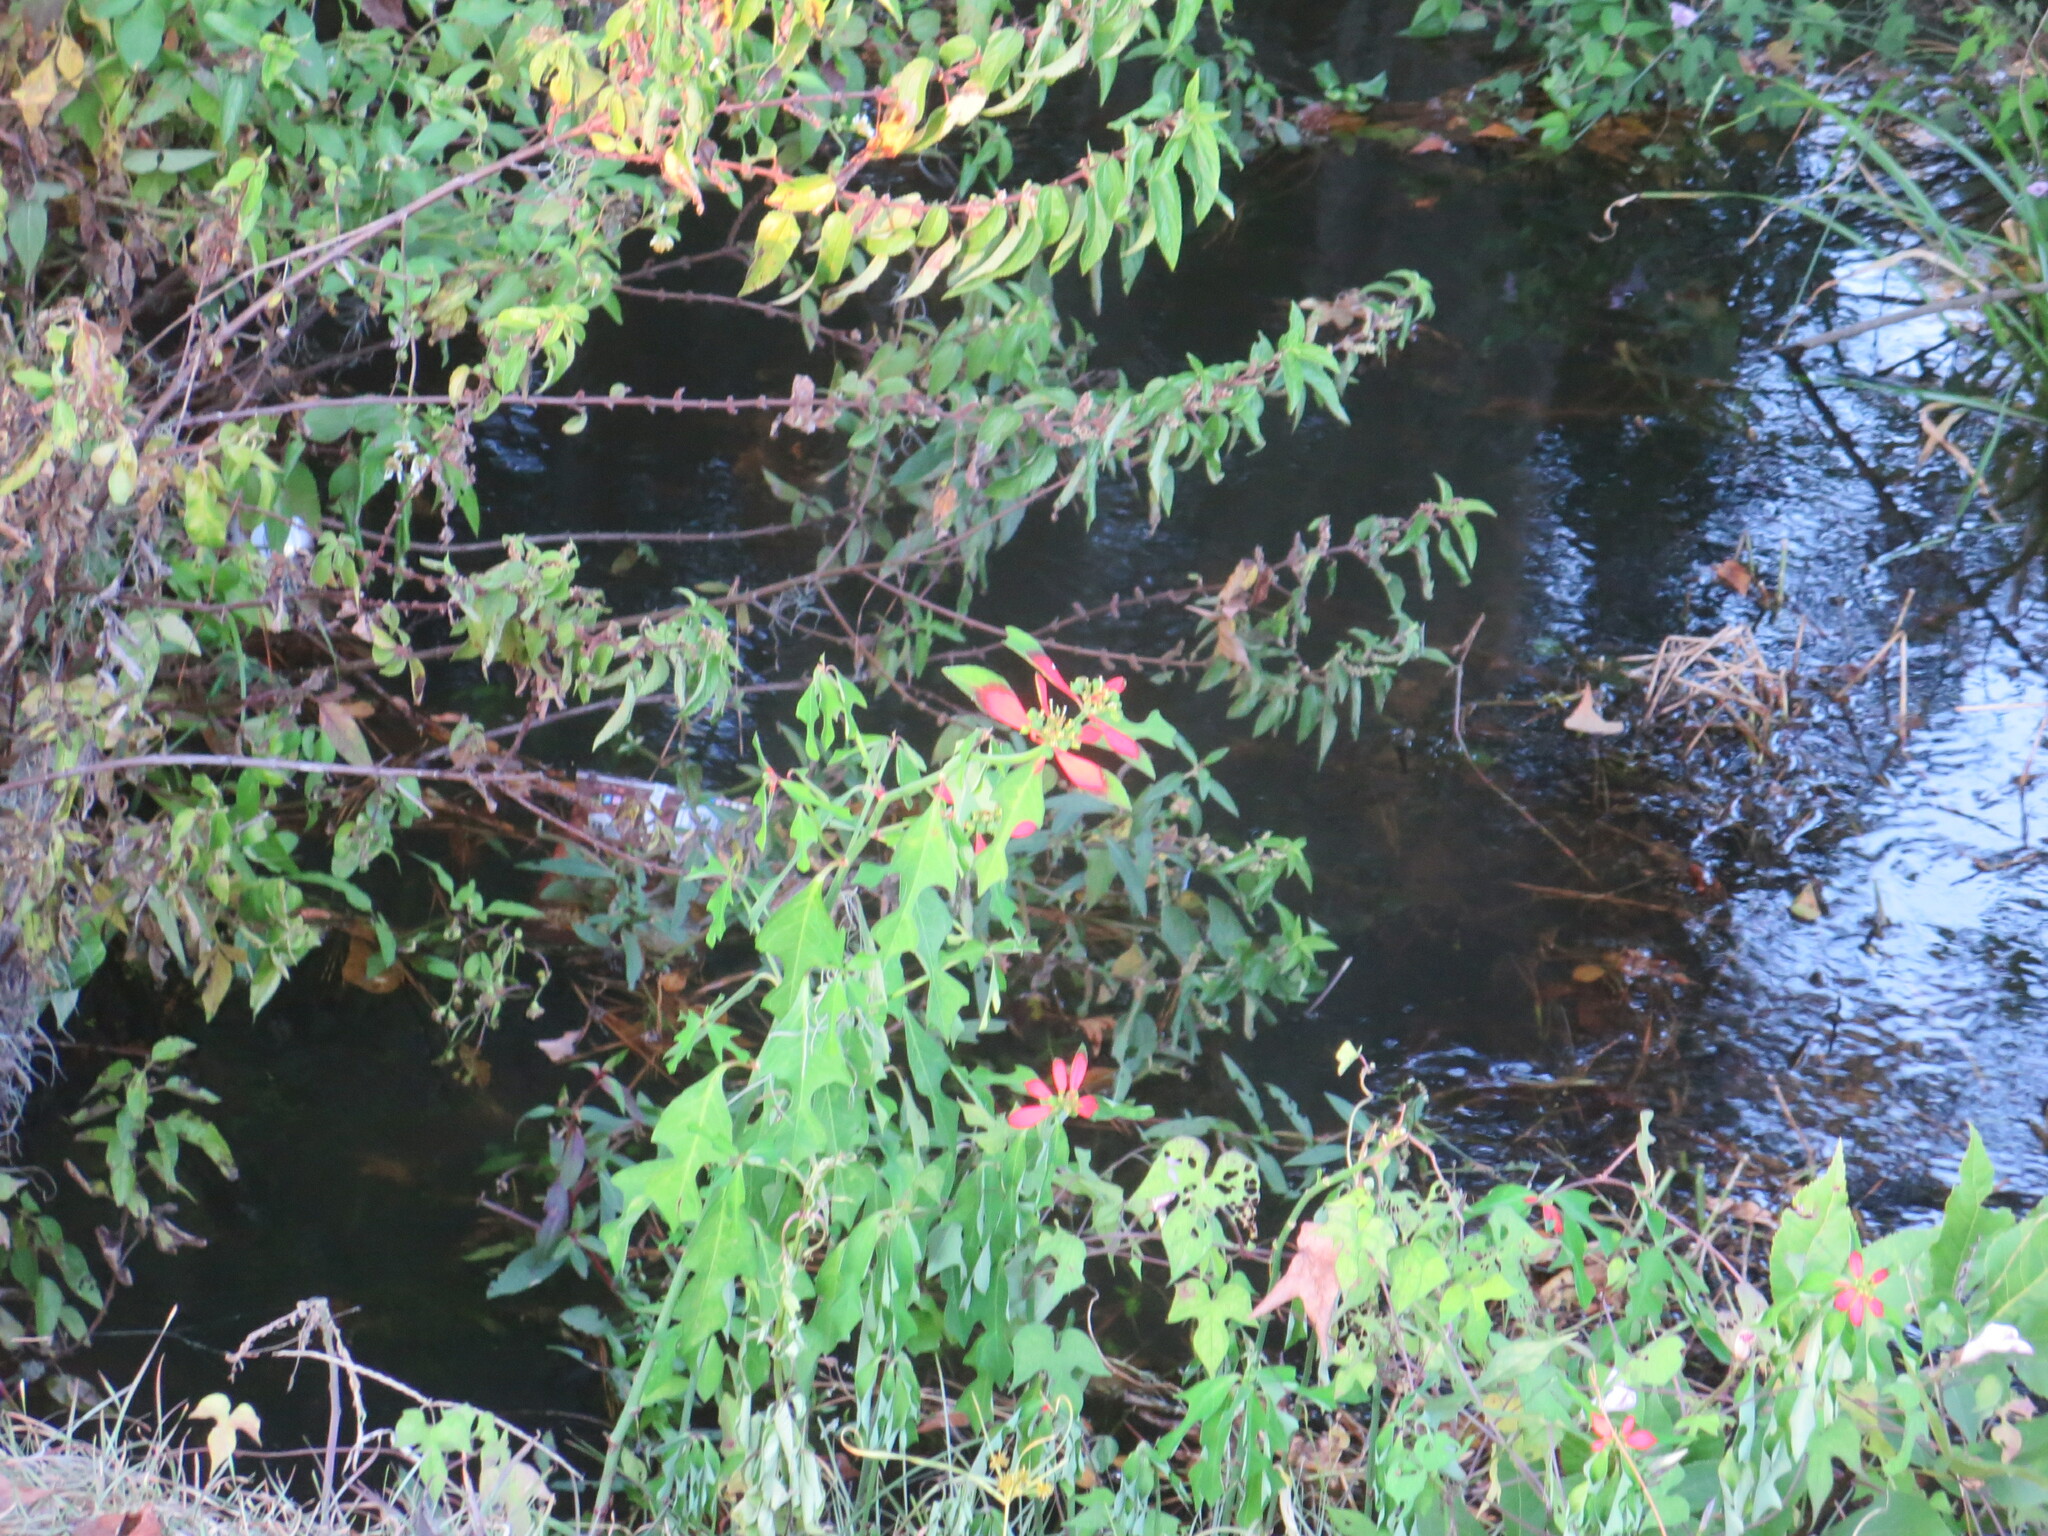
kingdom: Plantae
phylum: Tracheophyta
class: Magnoliopsida
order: Malpighiales
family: Euphorbiaceae
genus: Euphorbia
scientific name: Euphorbia heterophylla
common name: Mexican fireplant
